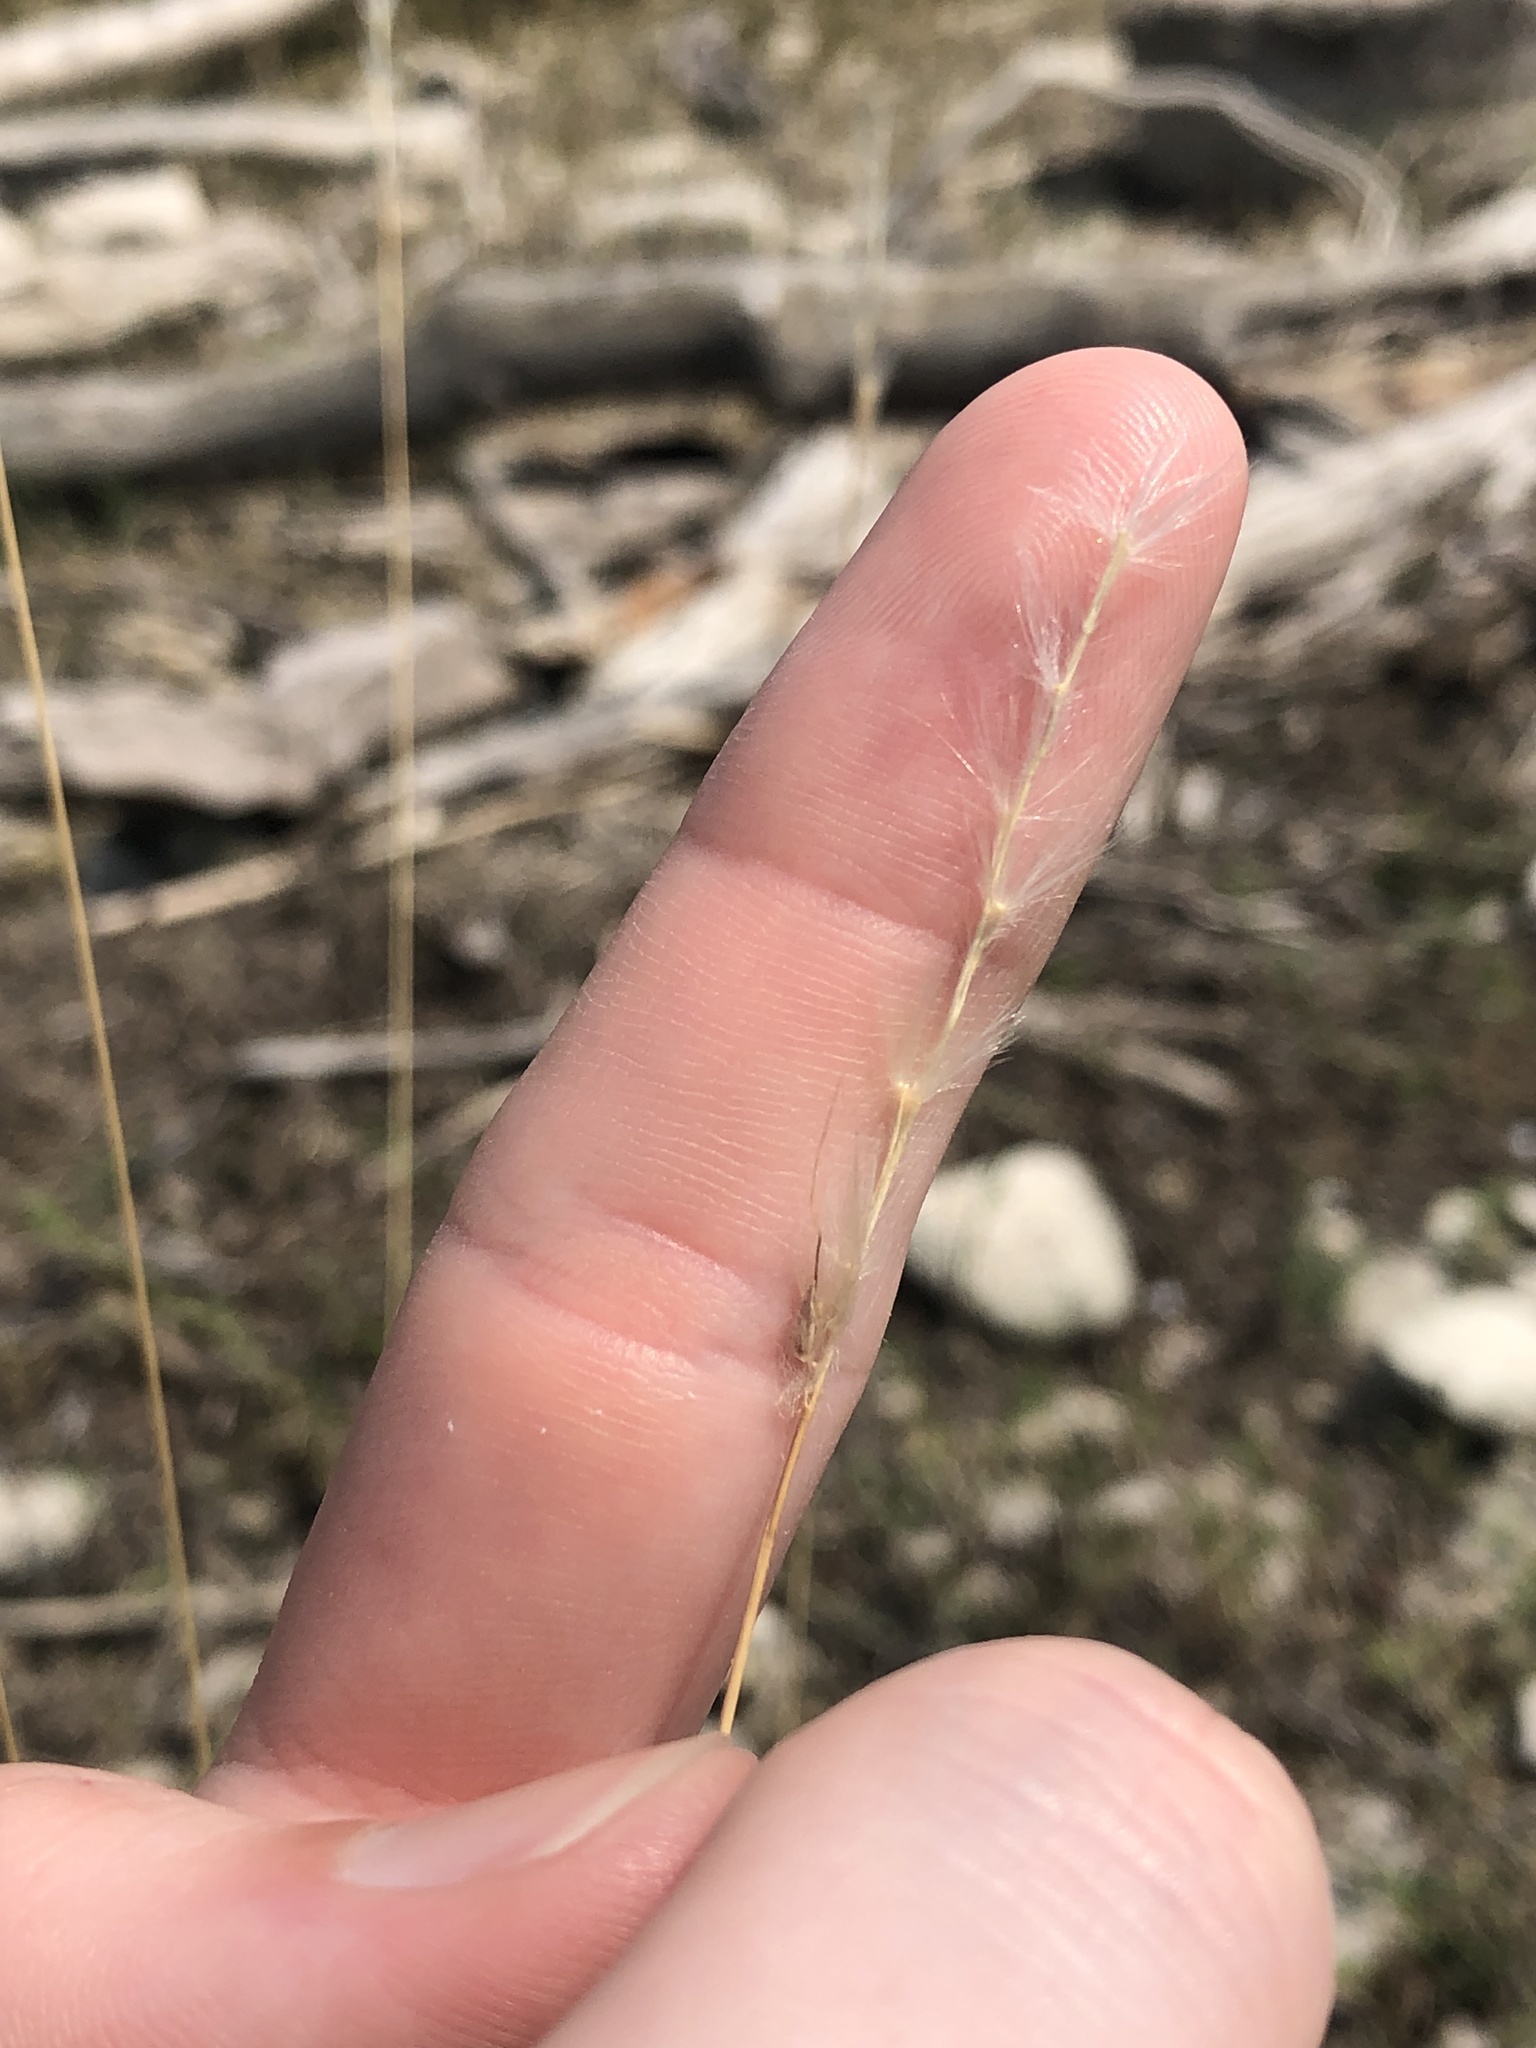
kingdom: Plantae
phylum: Tracheophyta
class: Liliopsida
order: Poales
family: Poaceae
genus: Bothriochloa
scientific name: Bothriochloa barbinodis
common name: Cane bluestem
